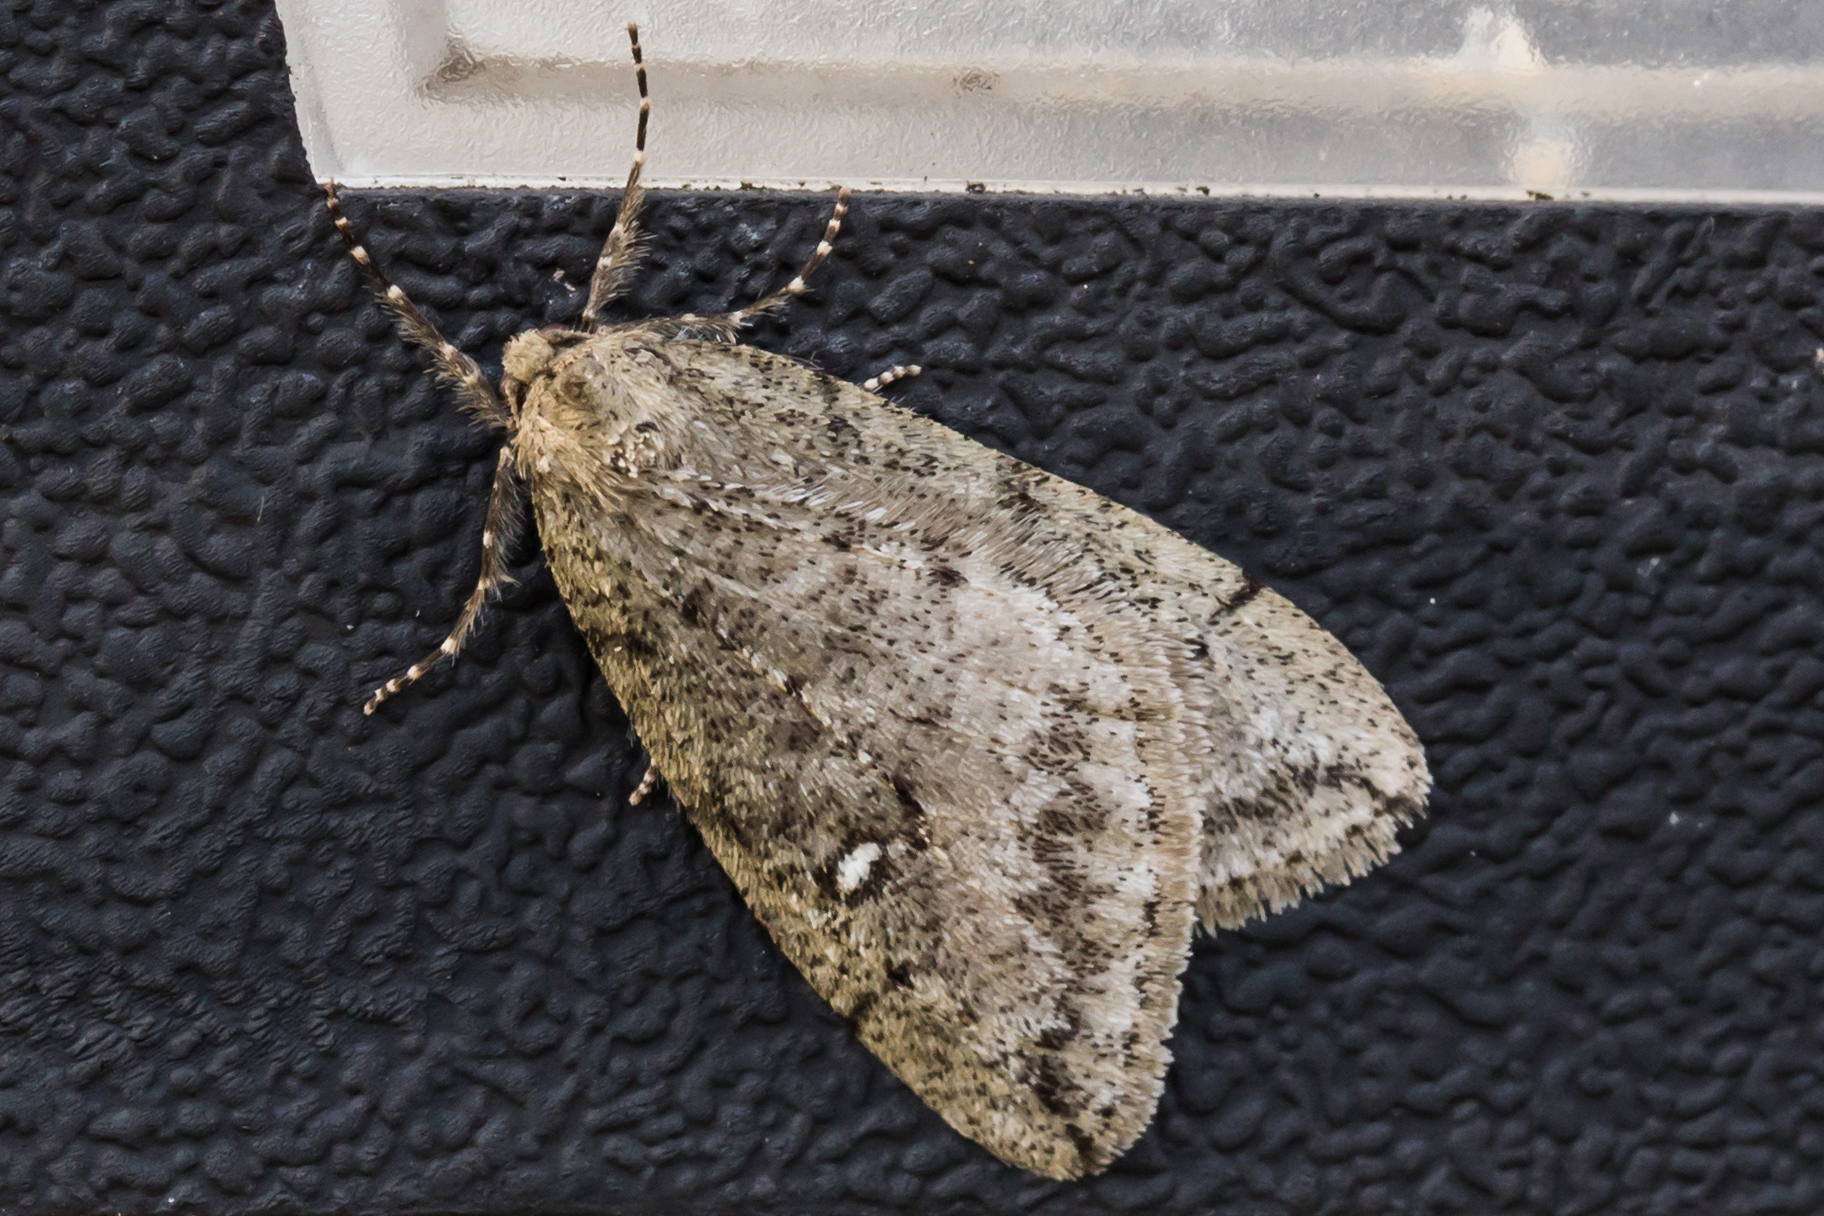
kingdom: Animalia
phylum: Arthropoda
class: Insecta
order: Lepidoptera
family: Geometridae
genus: Paleacrita
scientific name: Paleacrita merriccata
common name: White-spotted canker worm
